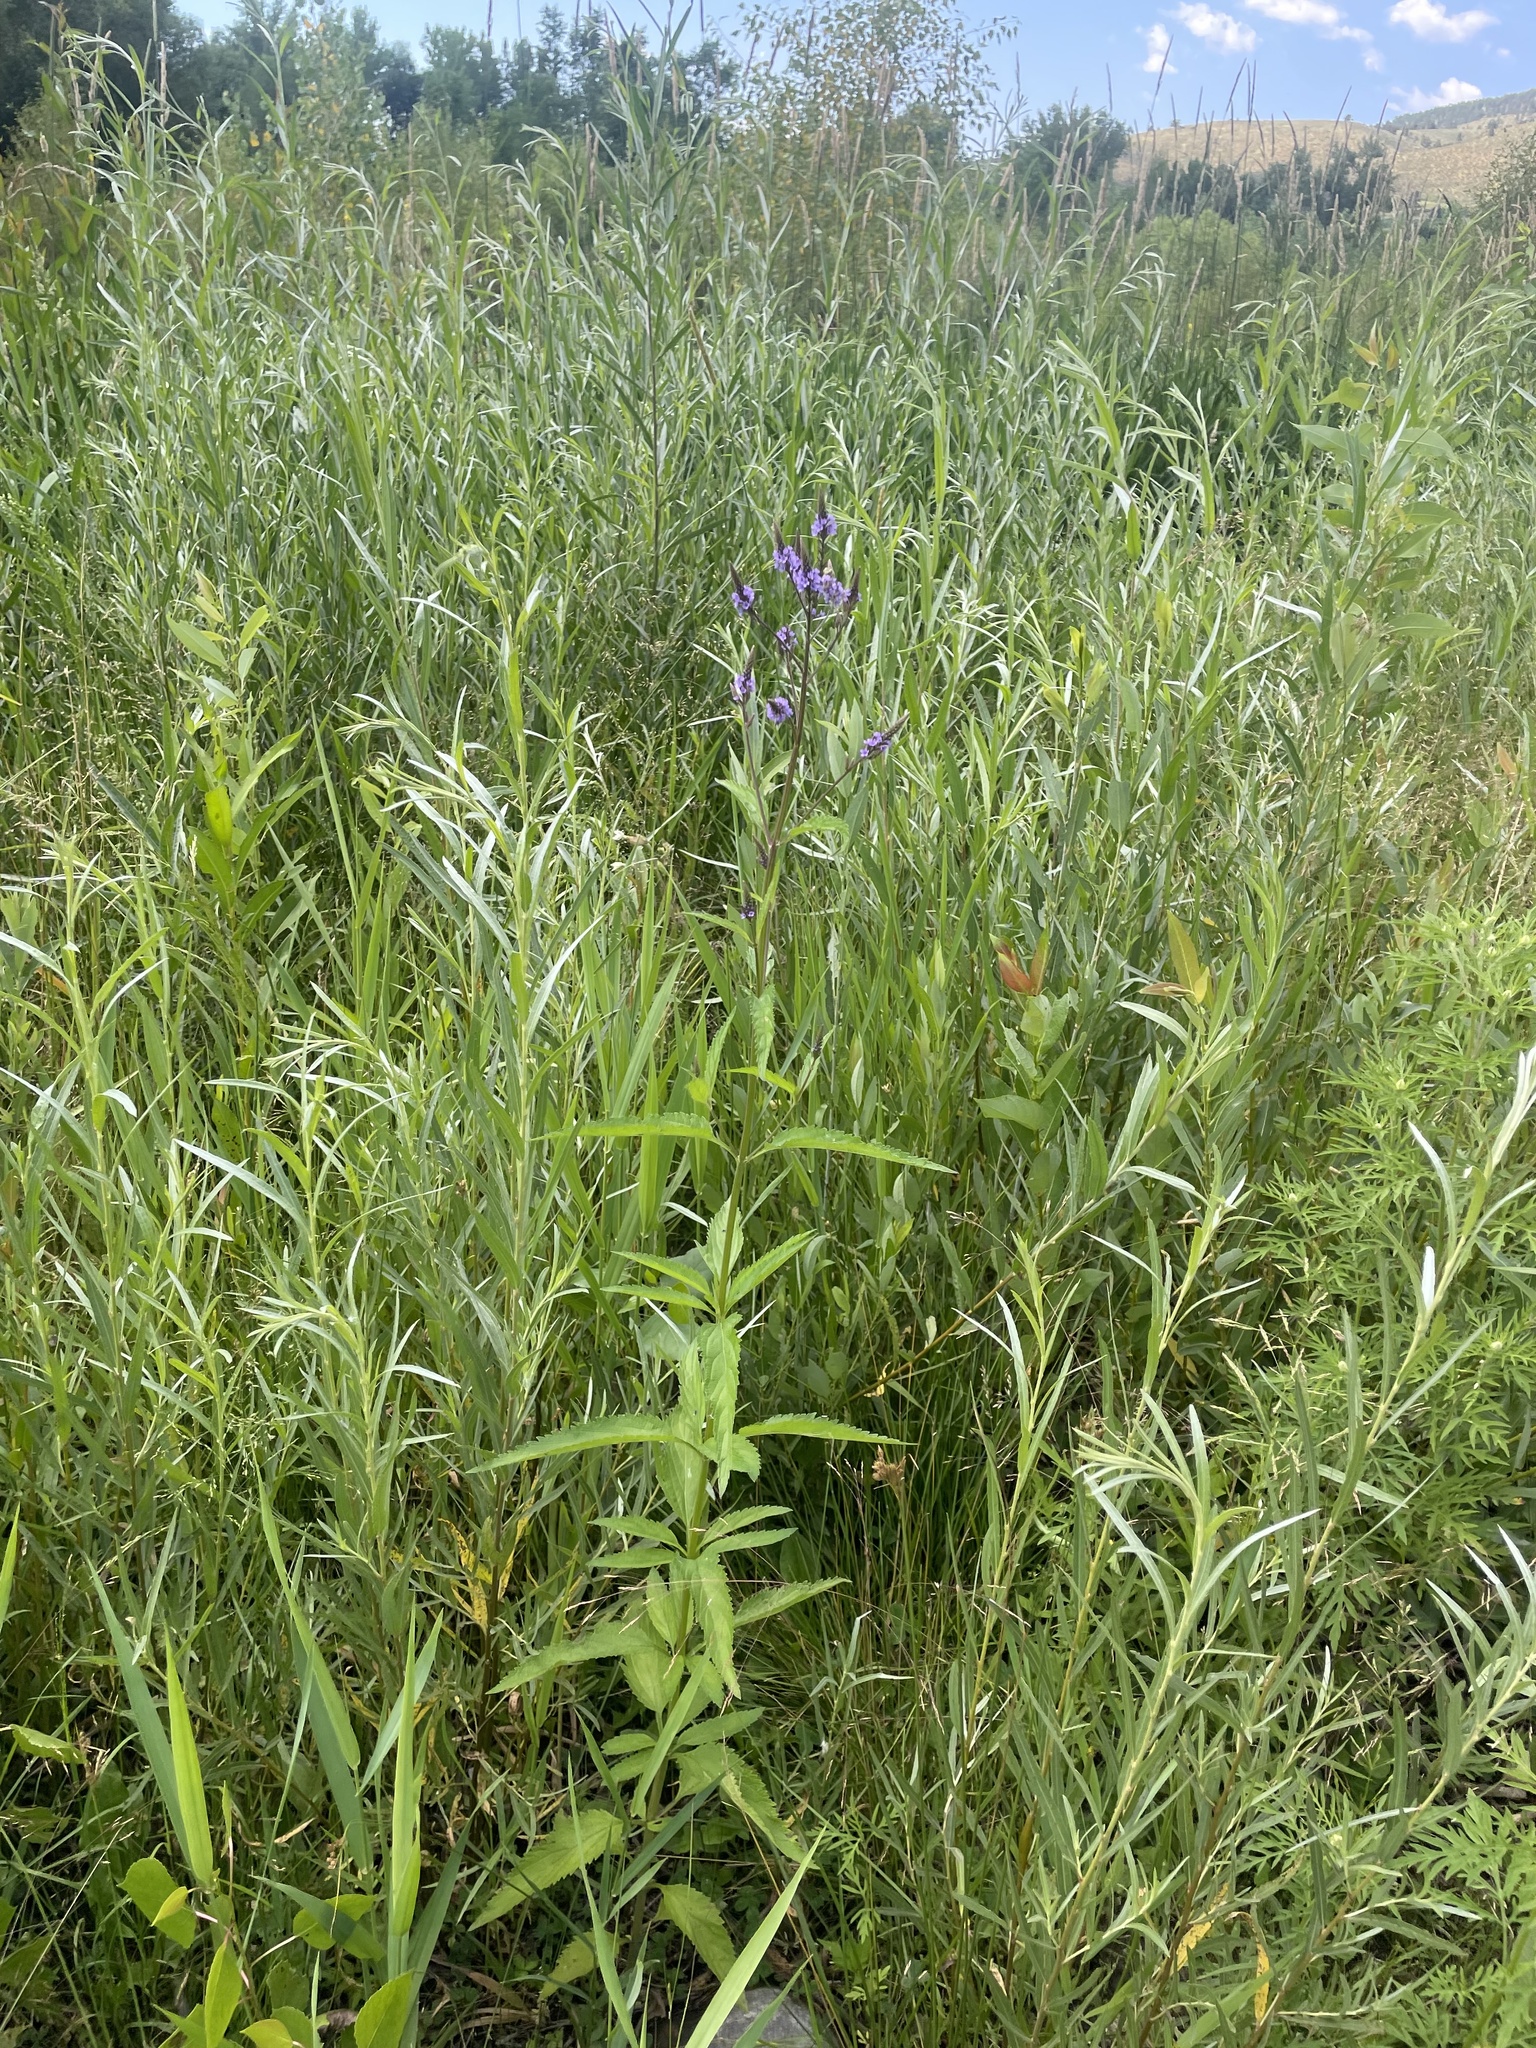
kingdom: Plantae
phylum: Tracheophyta
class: Magnoliopsida
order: Lamiales
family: Verbenaceae
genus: Verbena
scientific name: Verbena hastata
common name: American blue vervain
